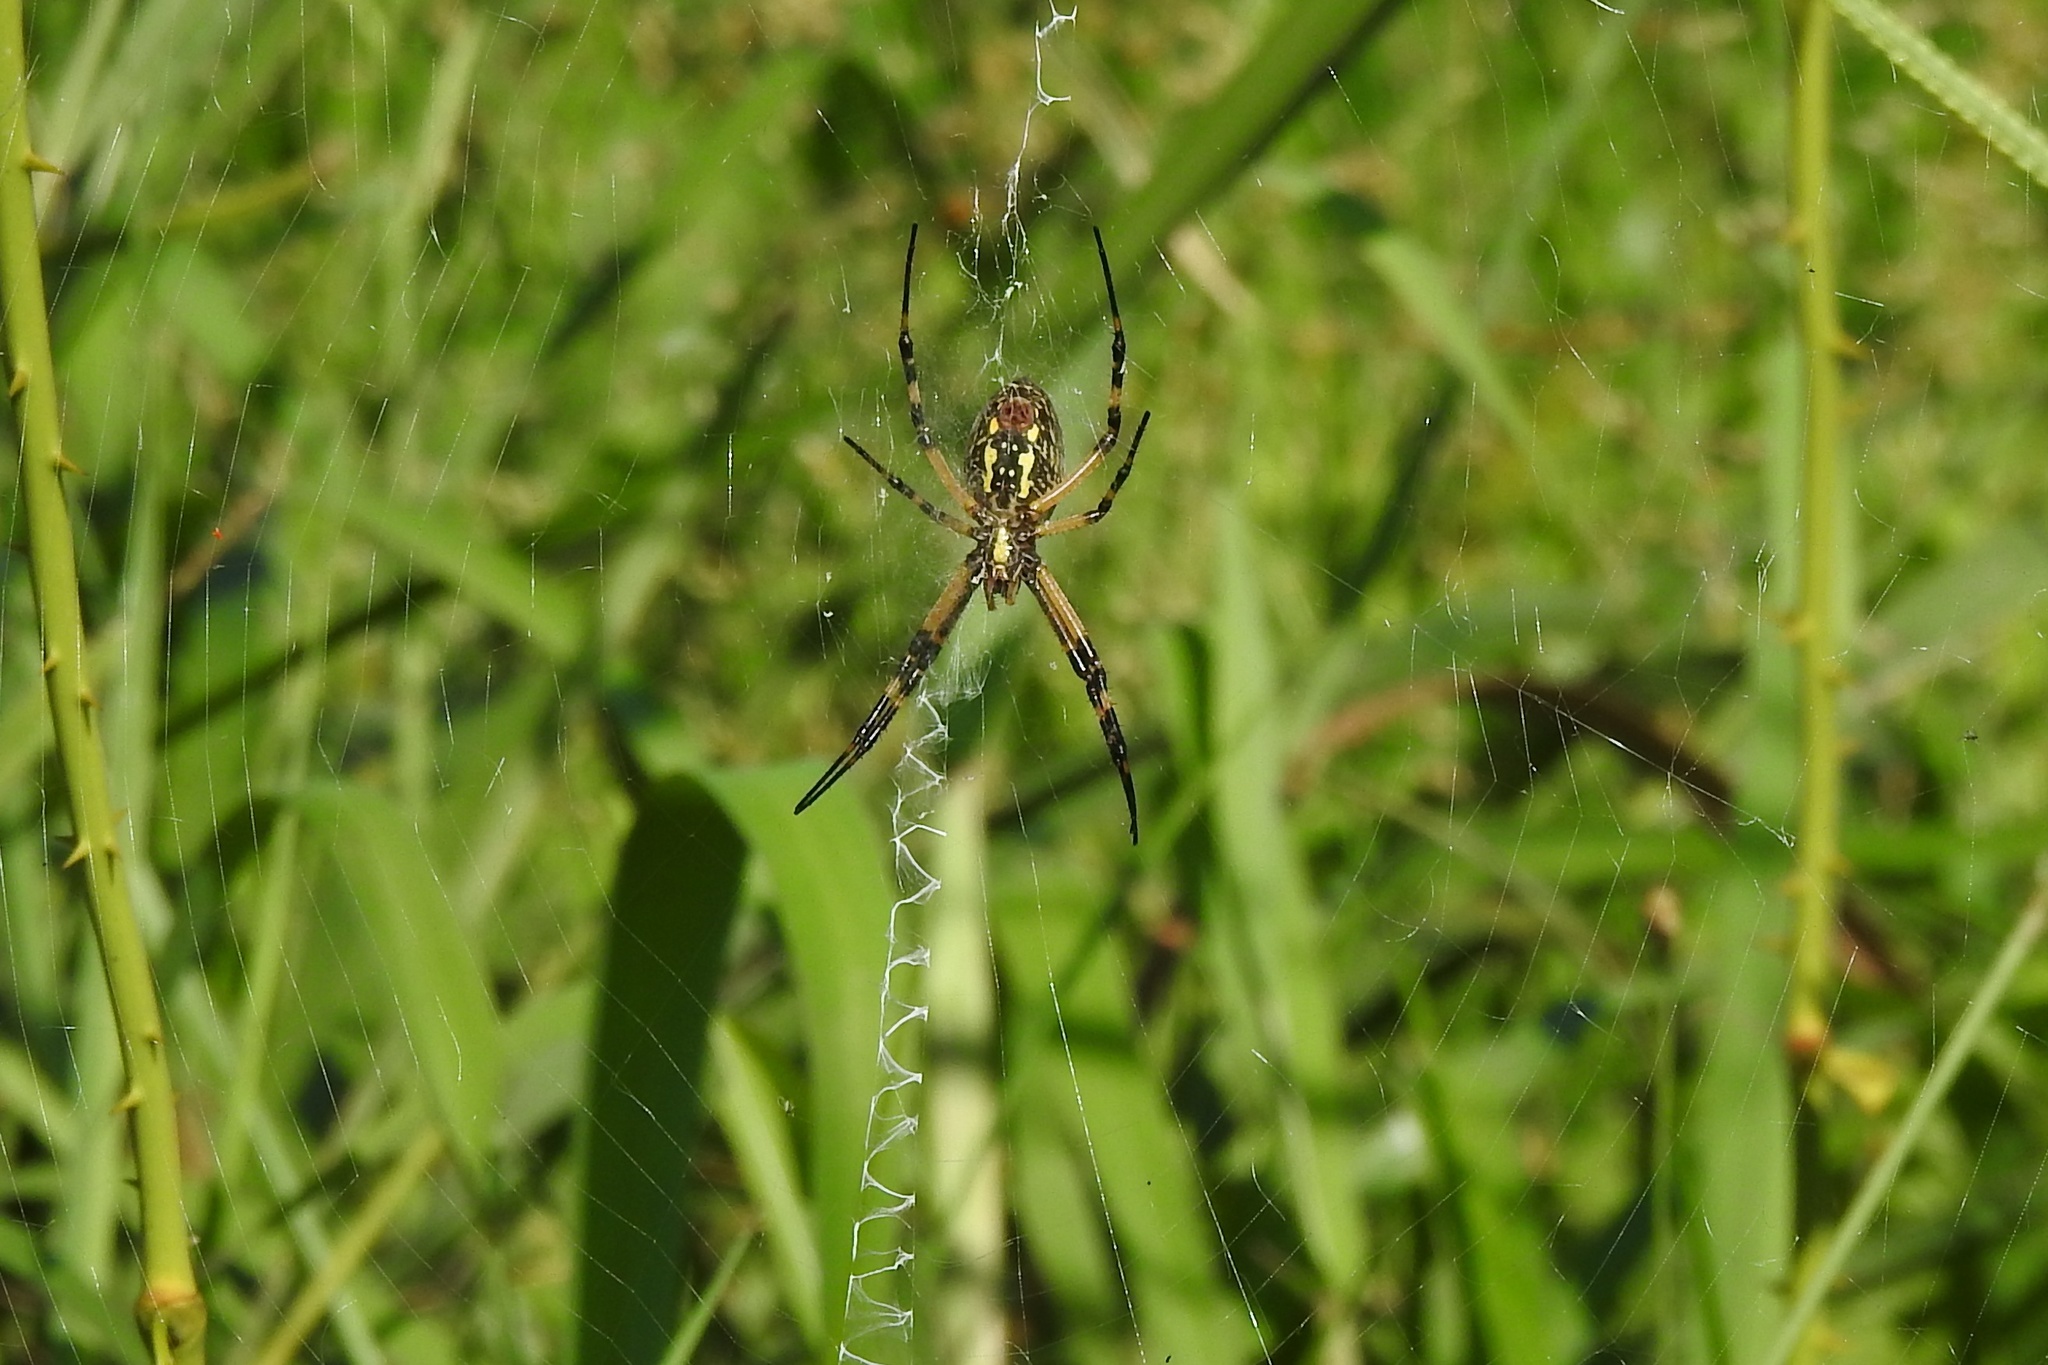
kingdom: Animalia
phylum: Arthropoda
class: Arachnida
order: Araneae
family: Araneidae
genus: Argiope
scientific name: Argiope aurantia
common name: Orb weavers
